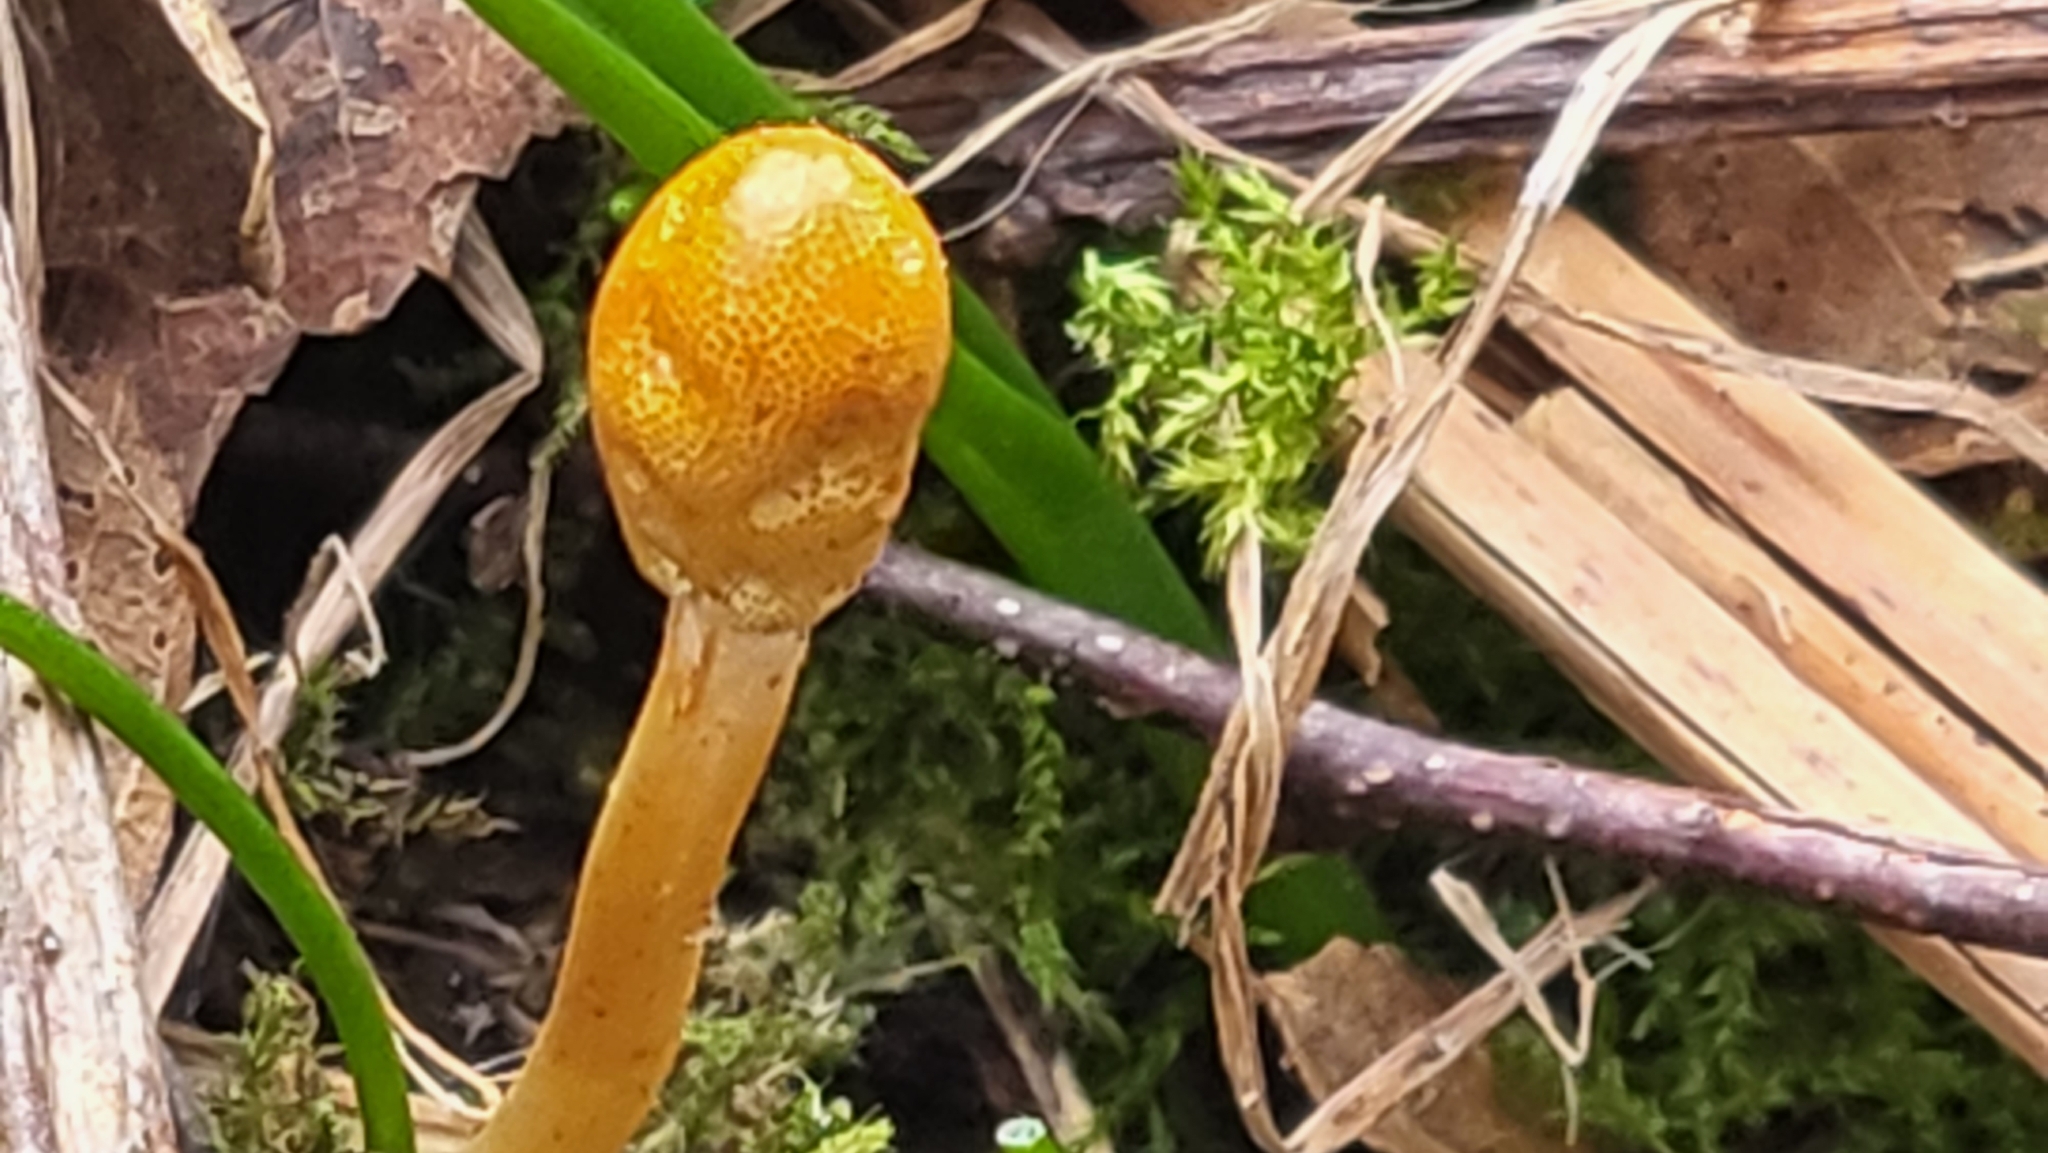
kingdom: Fungi
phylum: Ascomycota
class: Sordariomycetes
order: Hypocreales
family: Ophiocordycipitaceae
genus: Paraisaria
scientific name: Paraisaria gracilis
